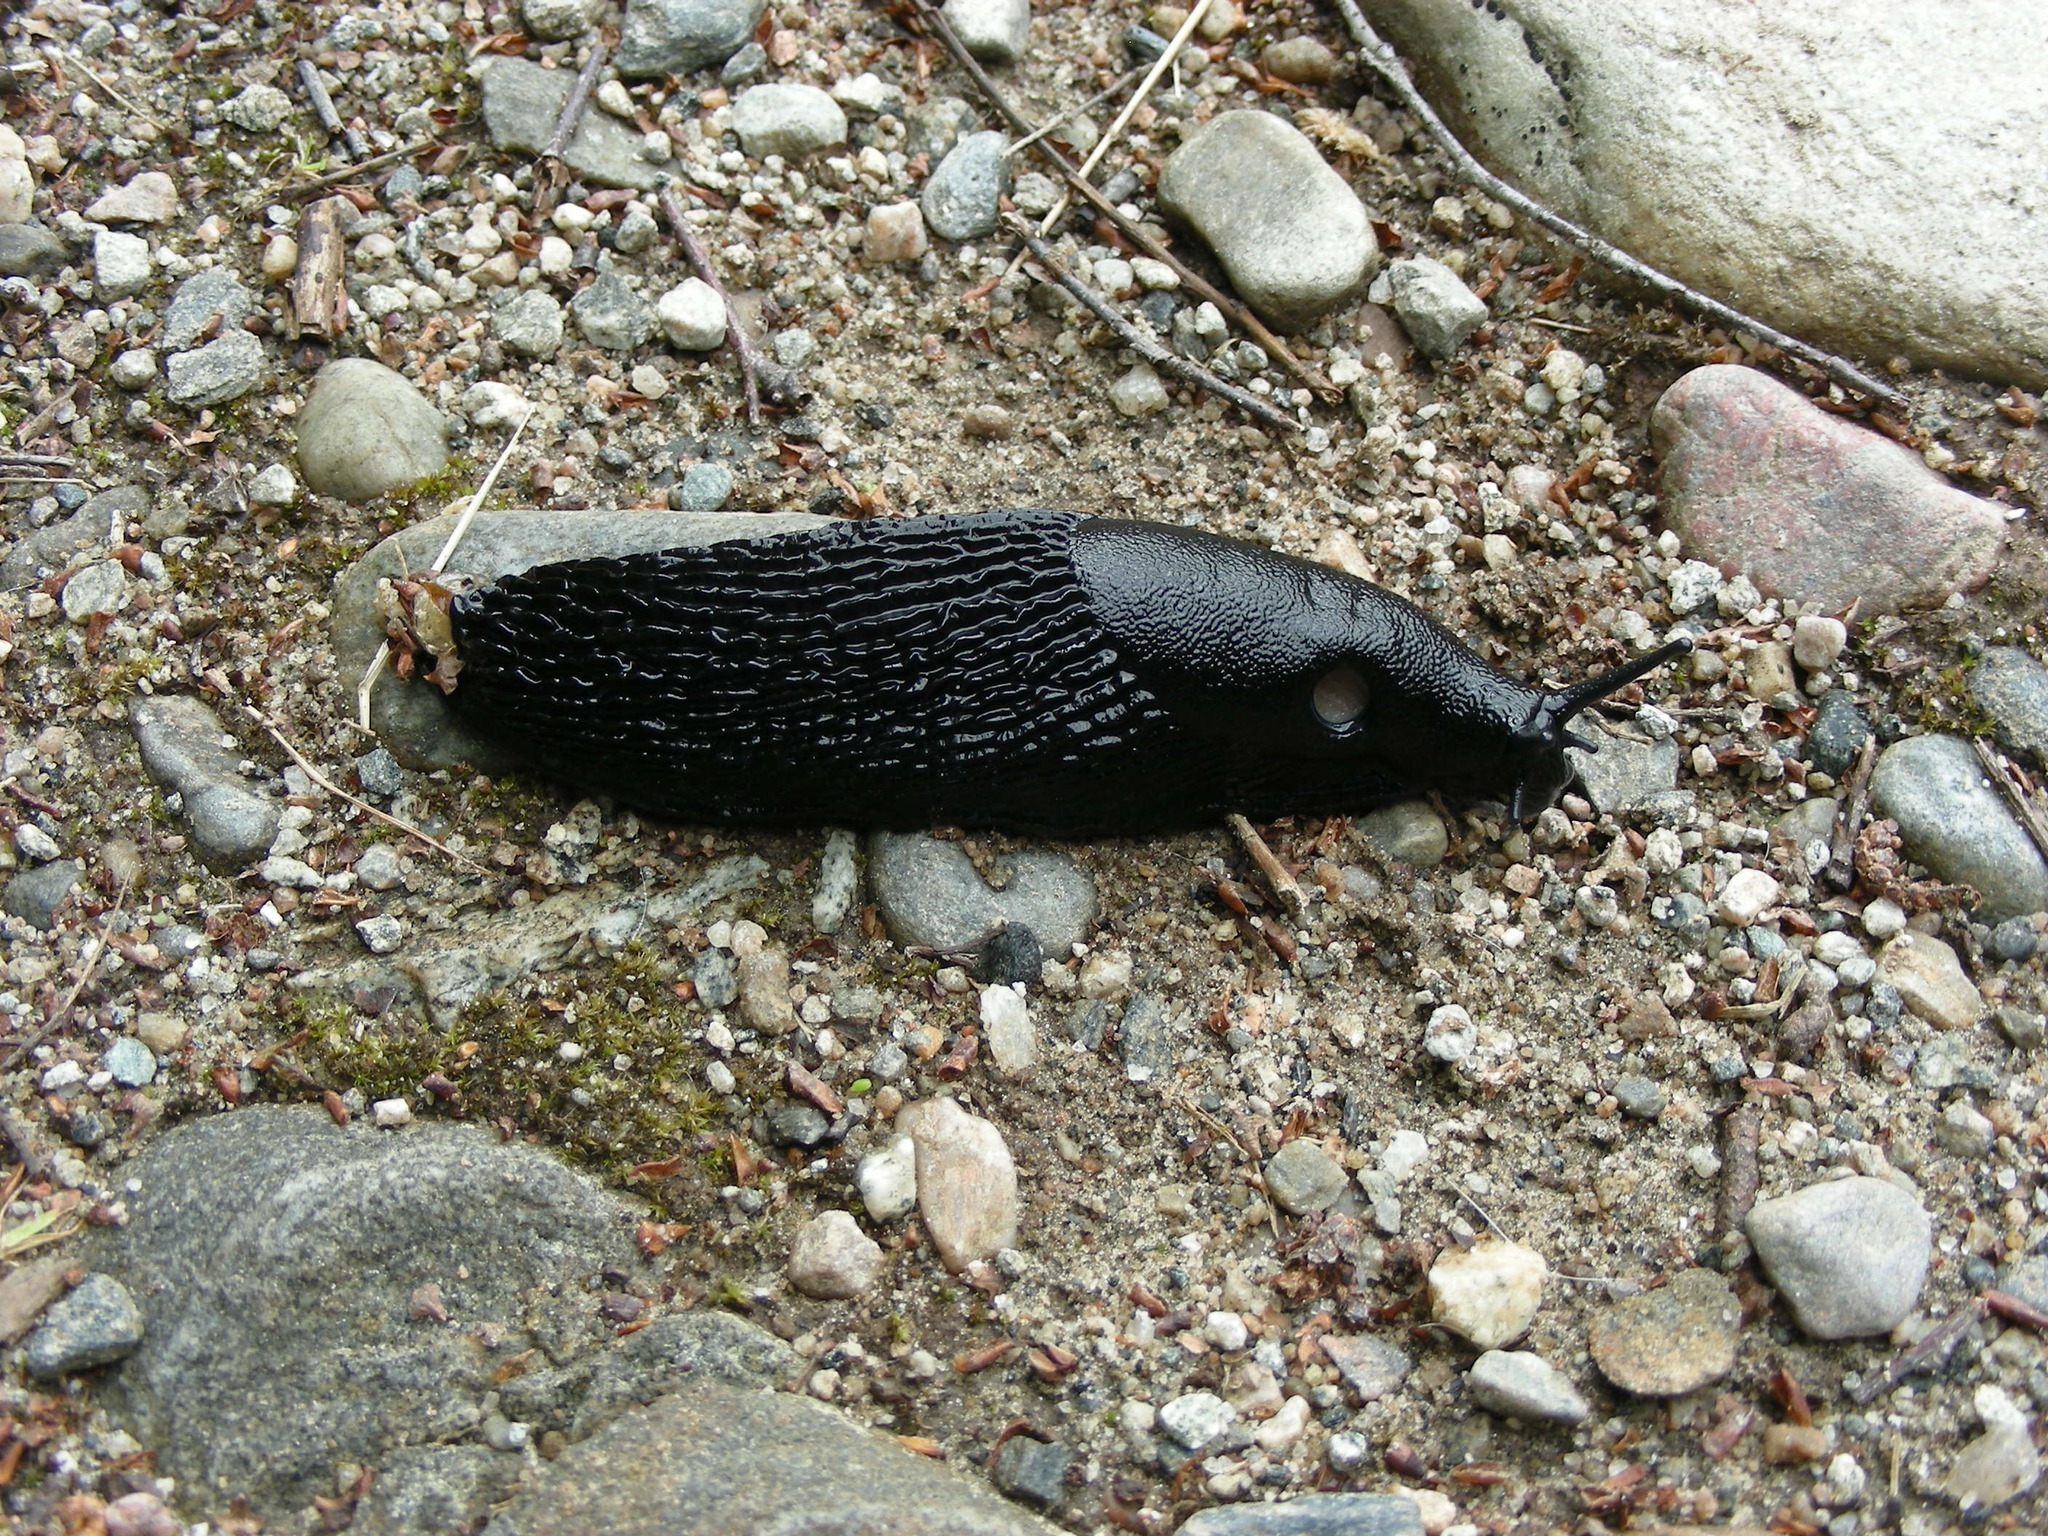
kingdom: Animalia
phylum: Mollusca
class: Gastropoda
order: Stylommatophora
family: Arionidae
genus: Arion
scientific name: Arion ater
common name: Black arion
